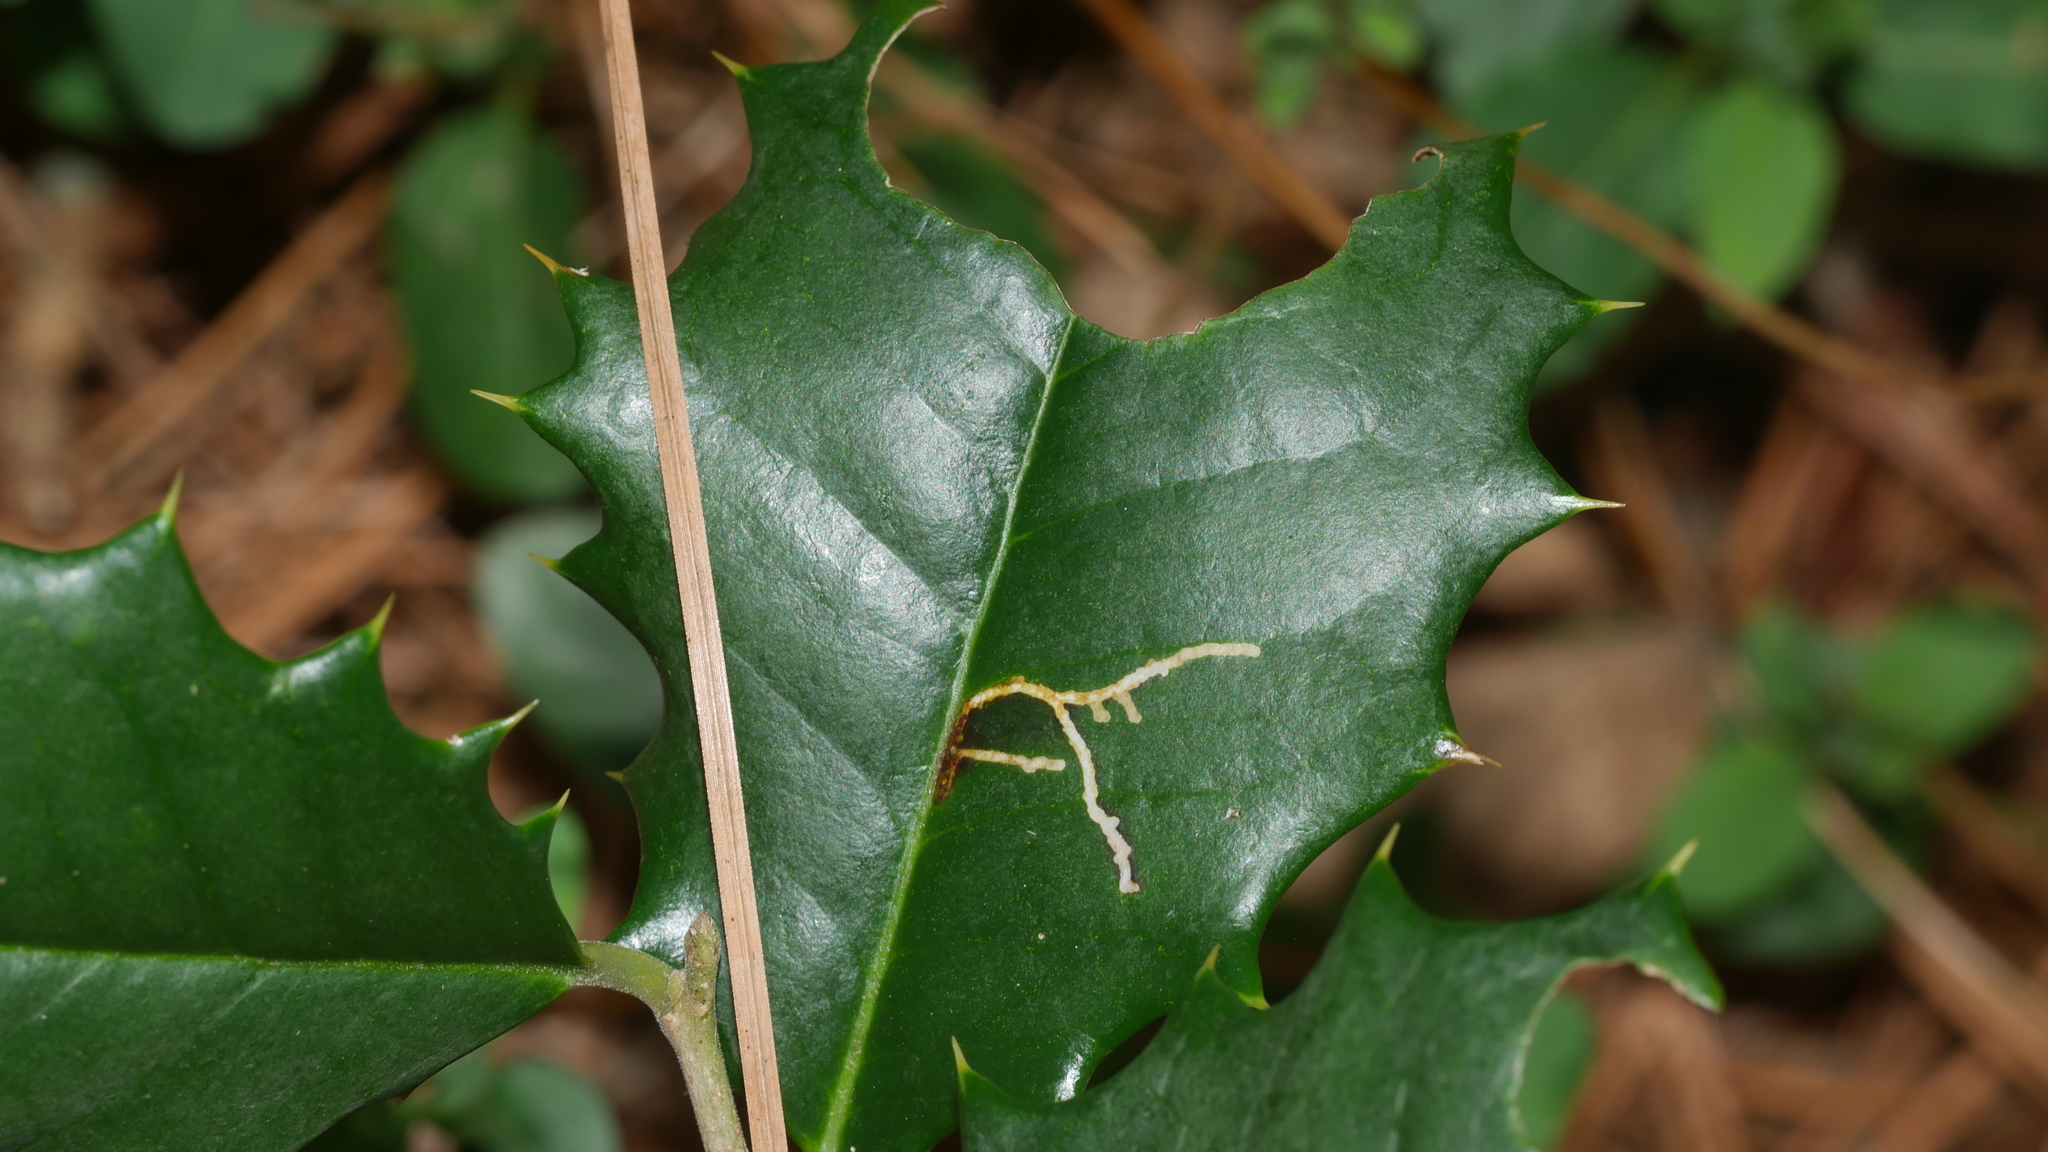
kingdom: Animalia
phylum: Arthropoda
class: Insecta
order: Lepidoptera
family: Tortricidae
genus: Rhopobota
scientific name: Rhopobota
